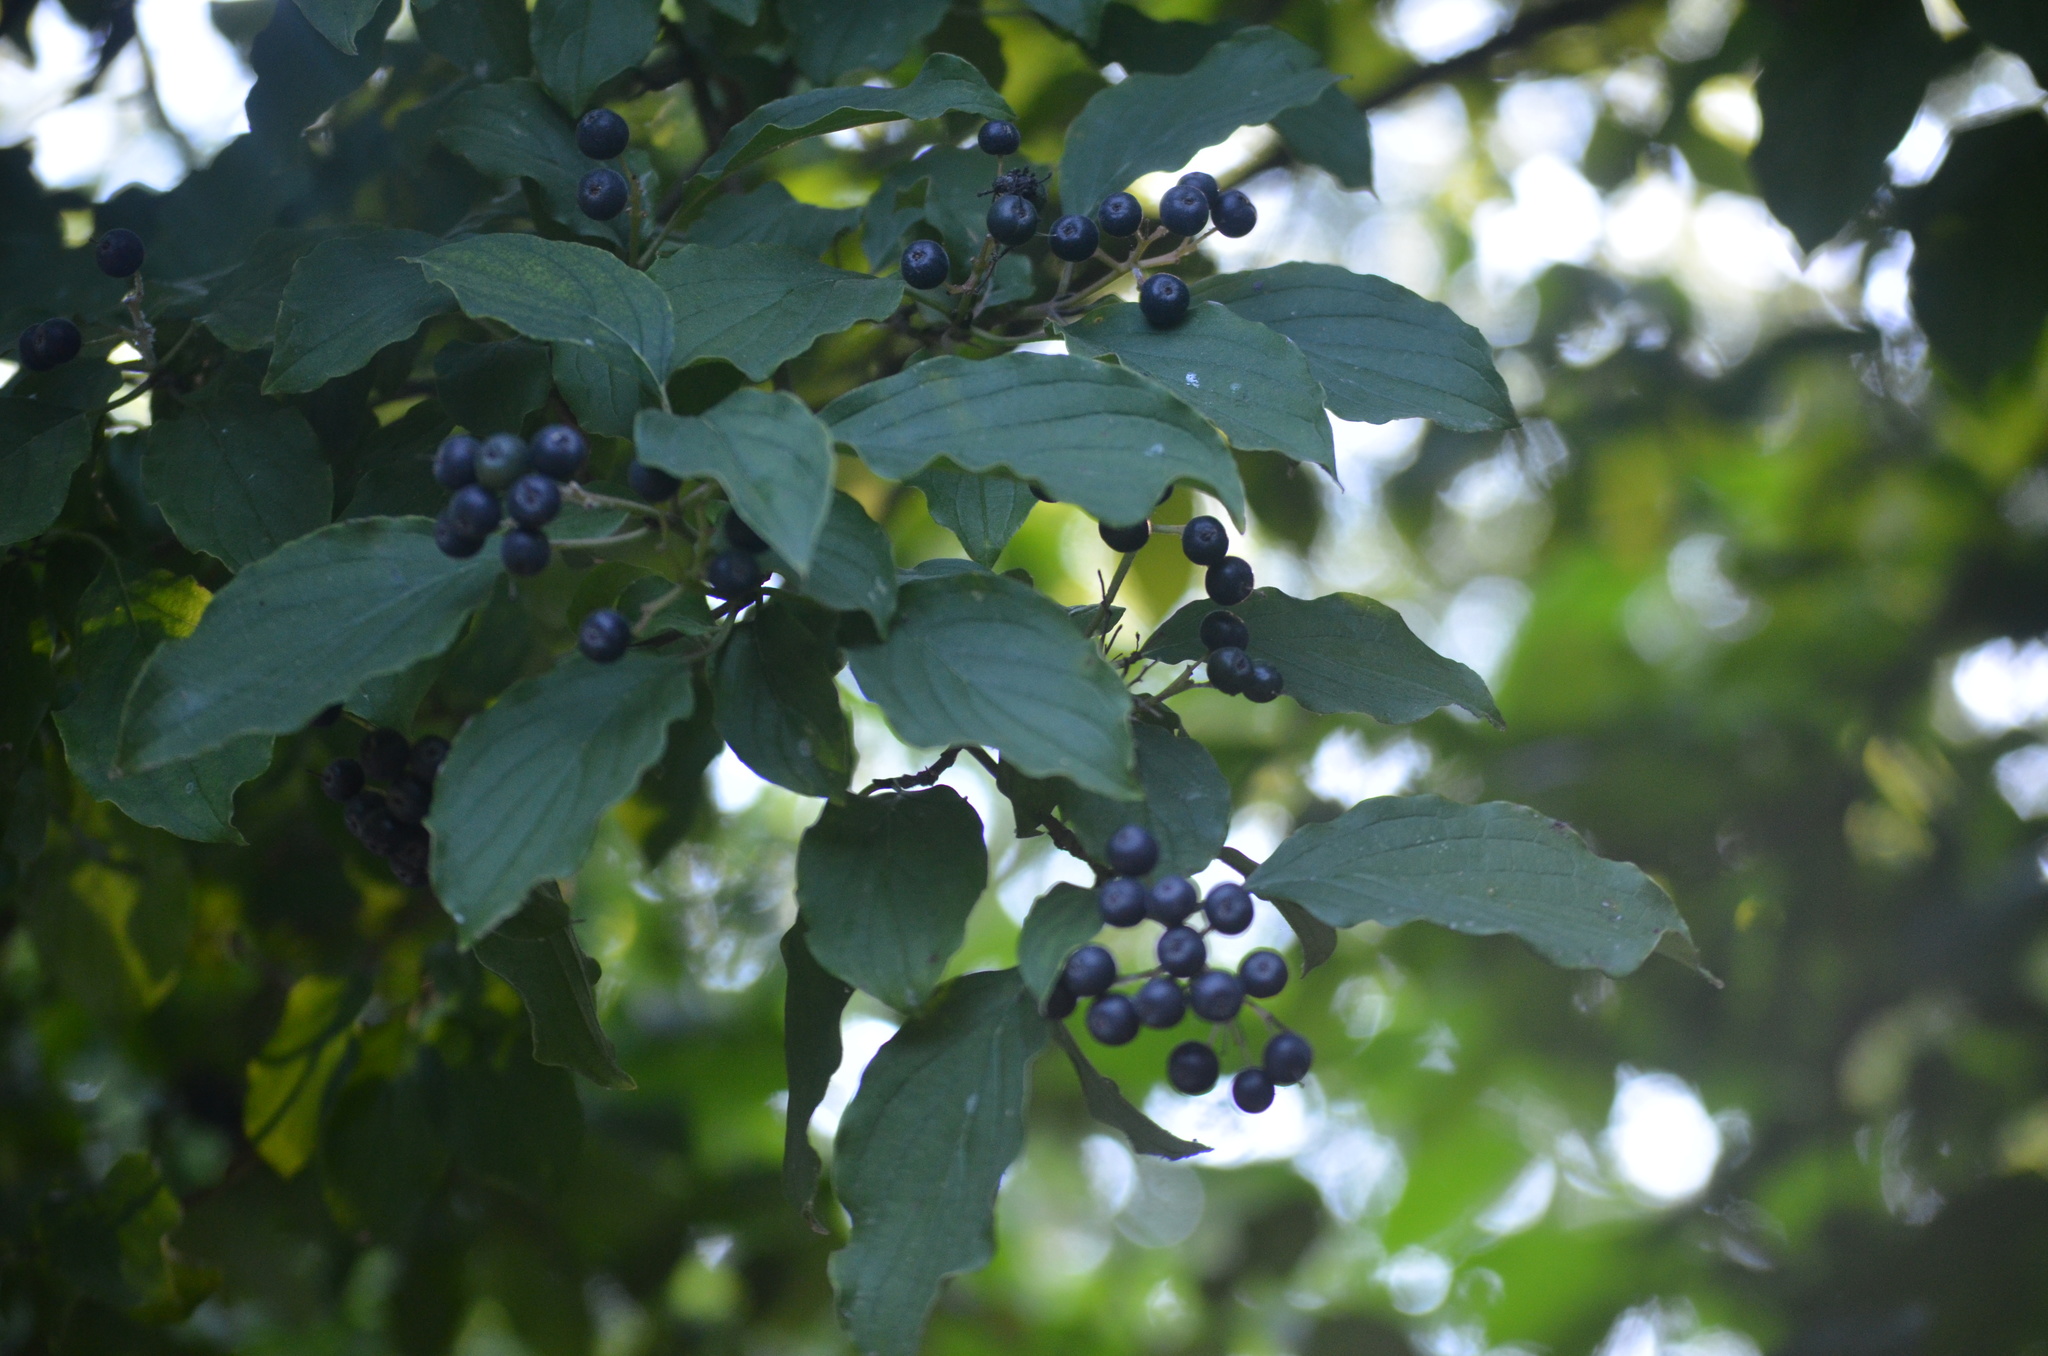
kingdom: Plantae
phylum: Tracheophyta
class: Magnoliopsida
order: Cornales
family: Cornaceae
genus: Cornus
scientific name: Cornus sanguinea
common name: Dogwood
